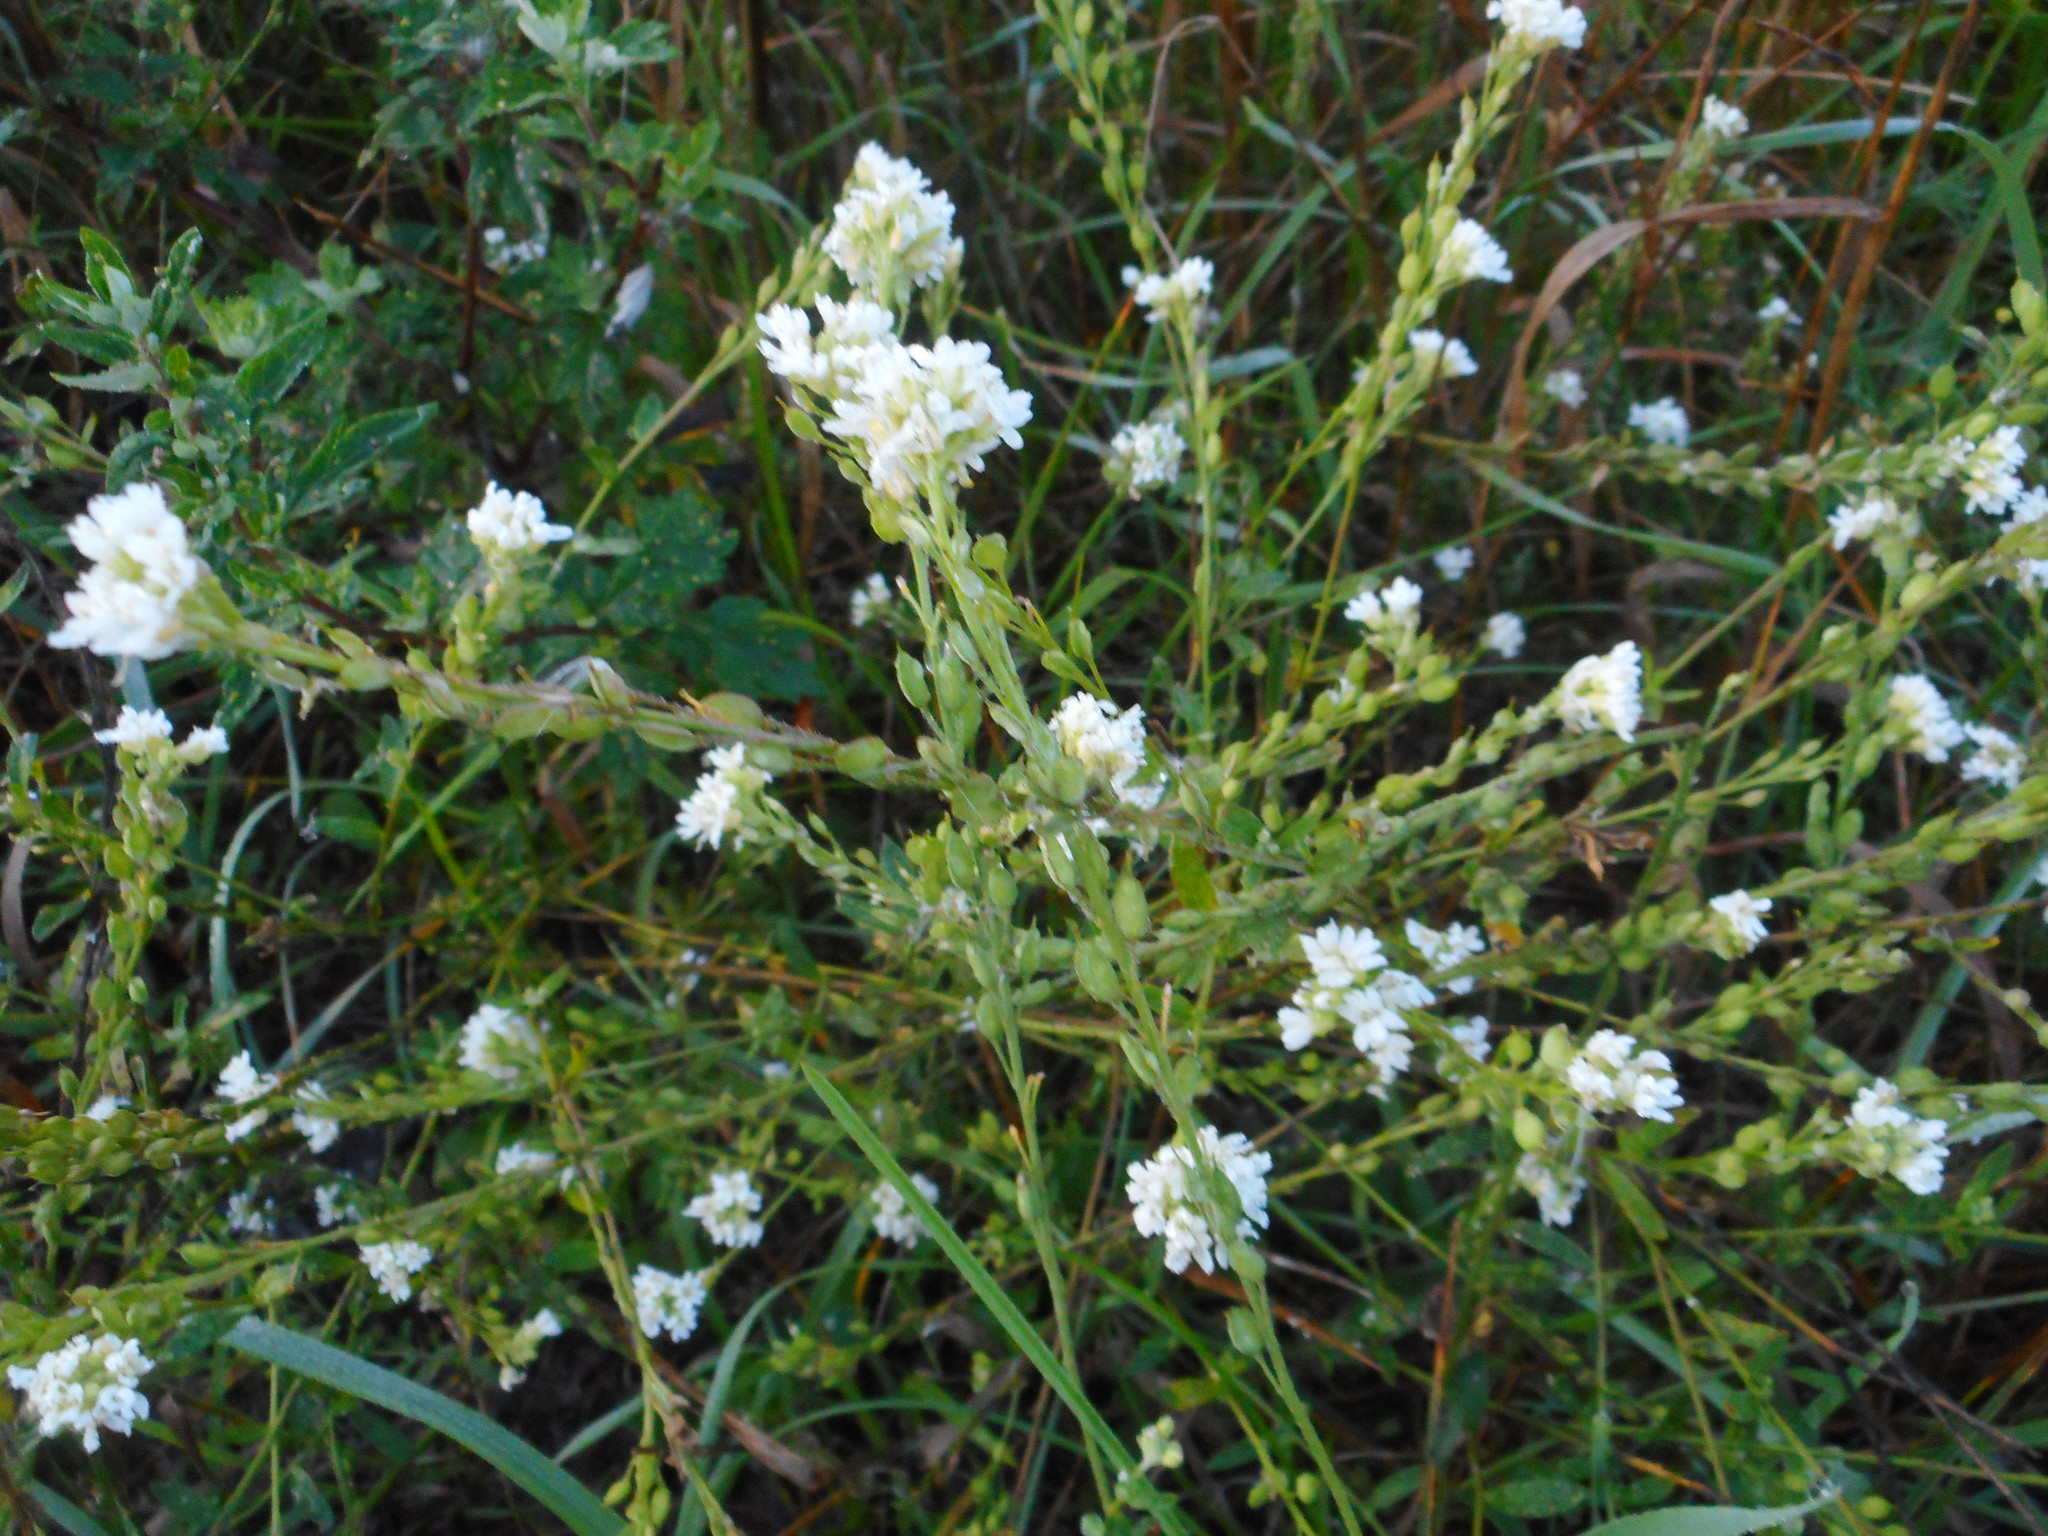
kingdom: Plantae
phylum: Tracheophyta
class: Magnoliopsida
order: Brassicales
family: Brassicaceae
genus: Berteroa
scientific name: Berteroa incana
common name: Hoary alison
